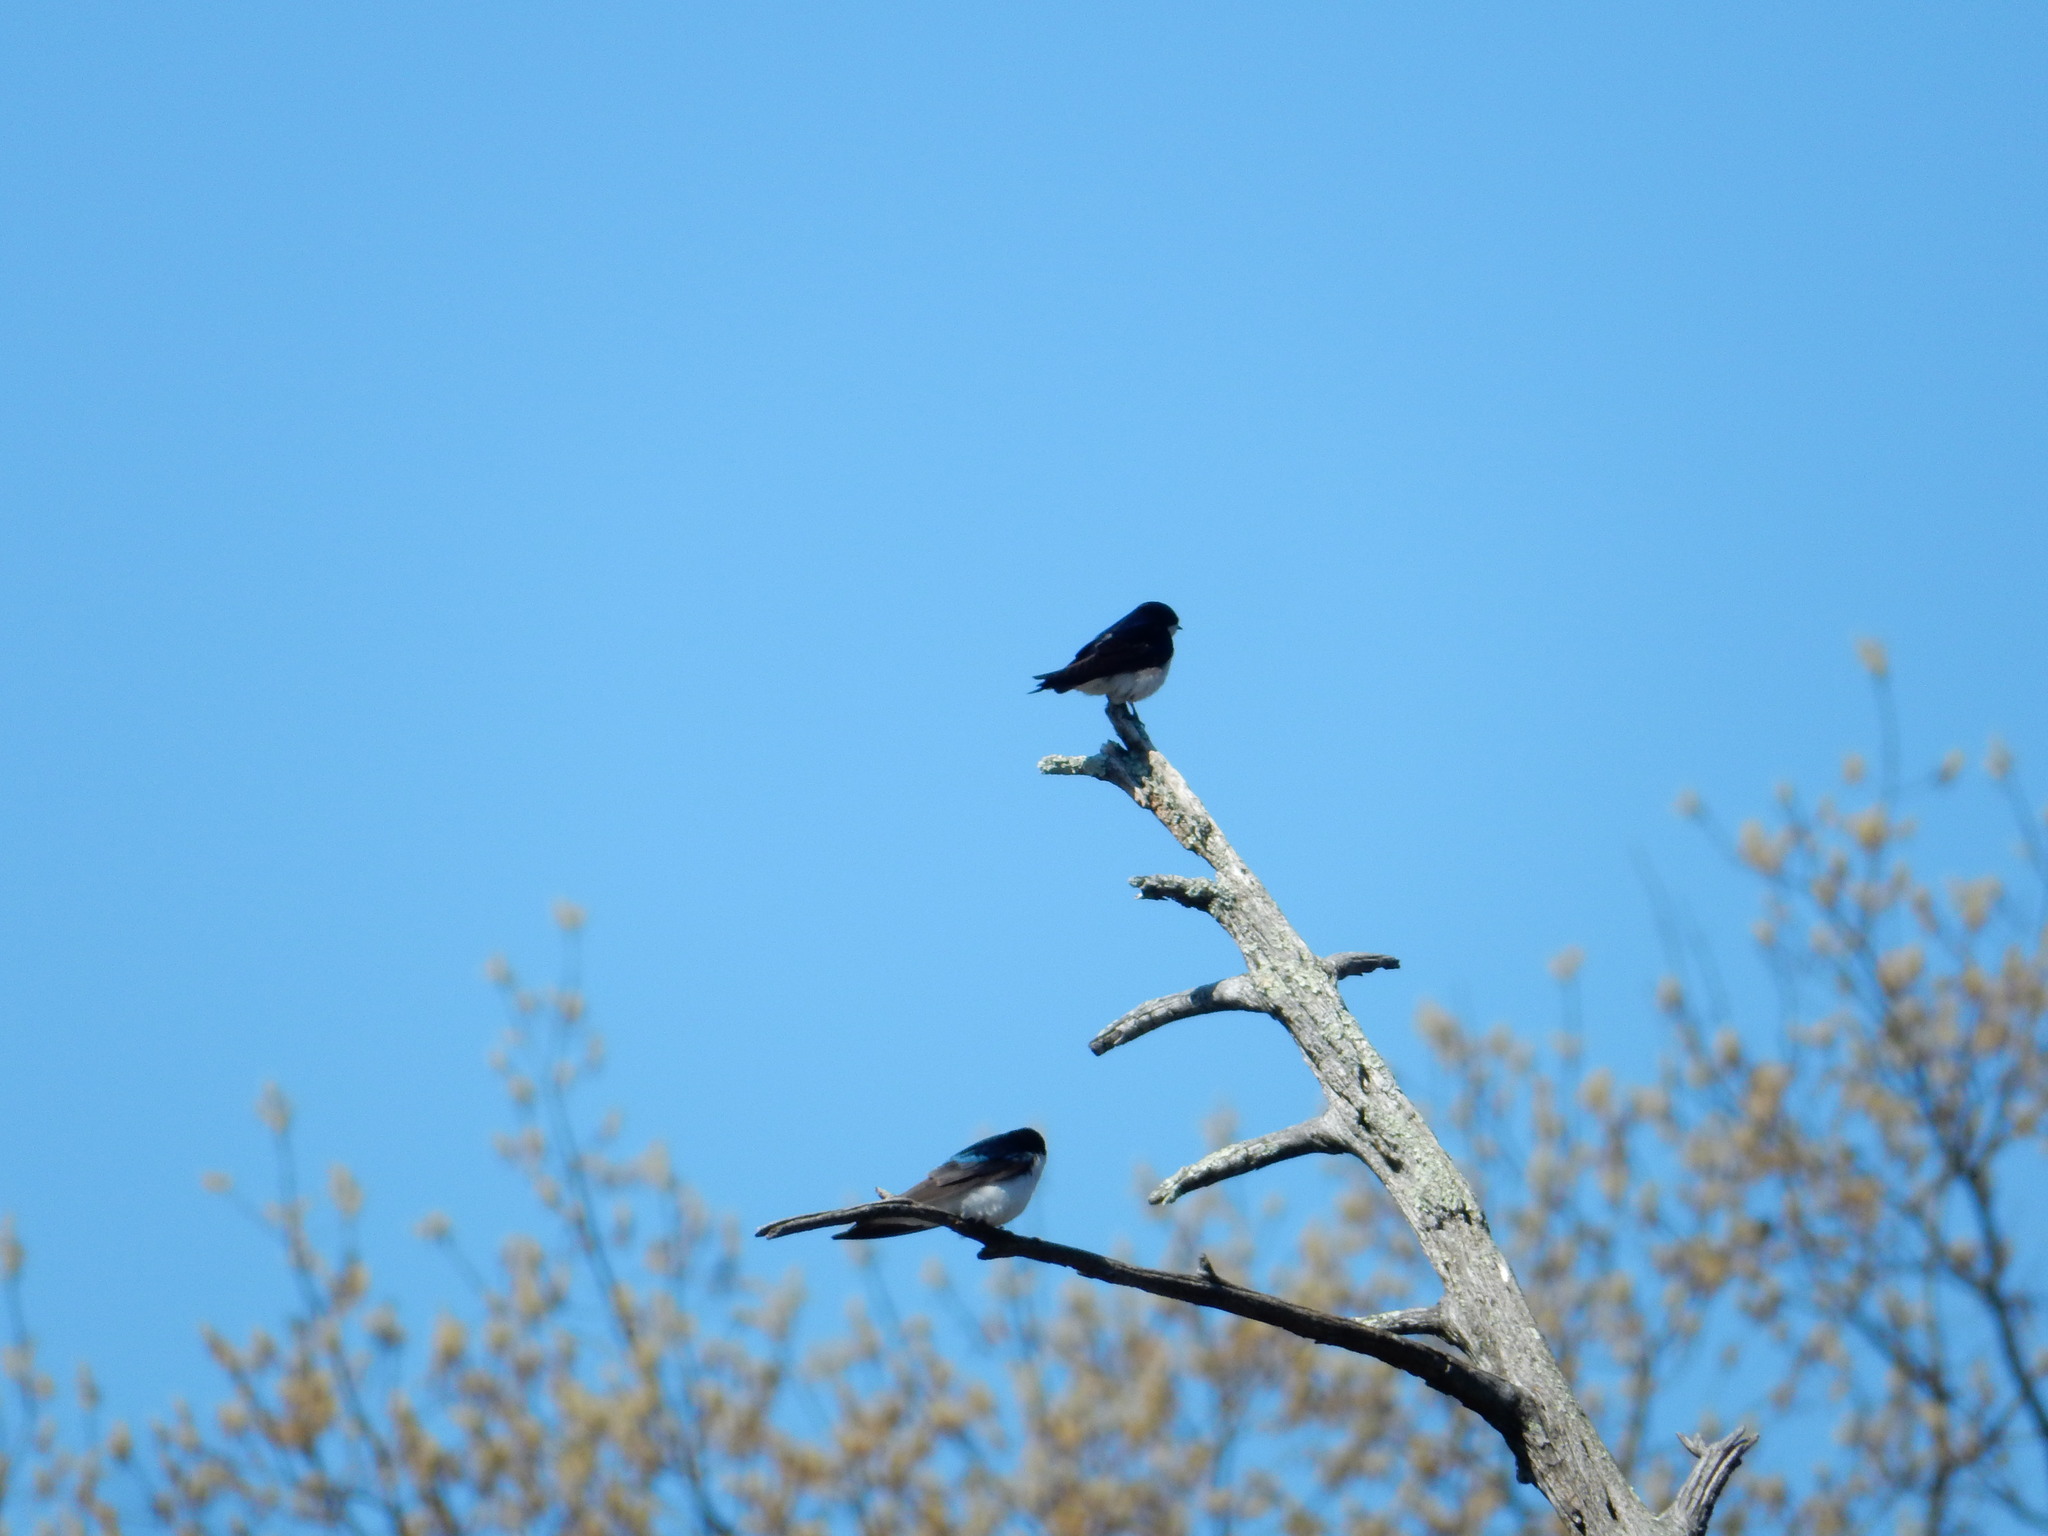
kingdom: Animalia
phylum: Chordata
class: Aves
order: Passeriformes
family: Hirundinidae
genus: Tachycineta
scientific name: Tachycineta bicolor
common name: Tree swallow
